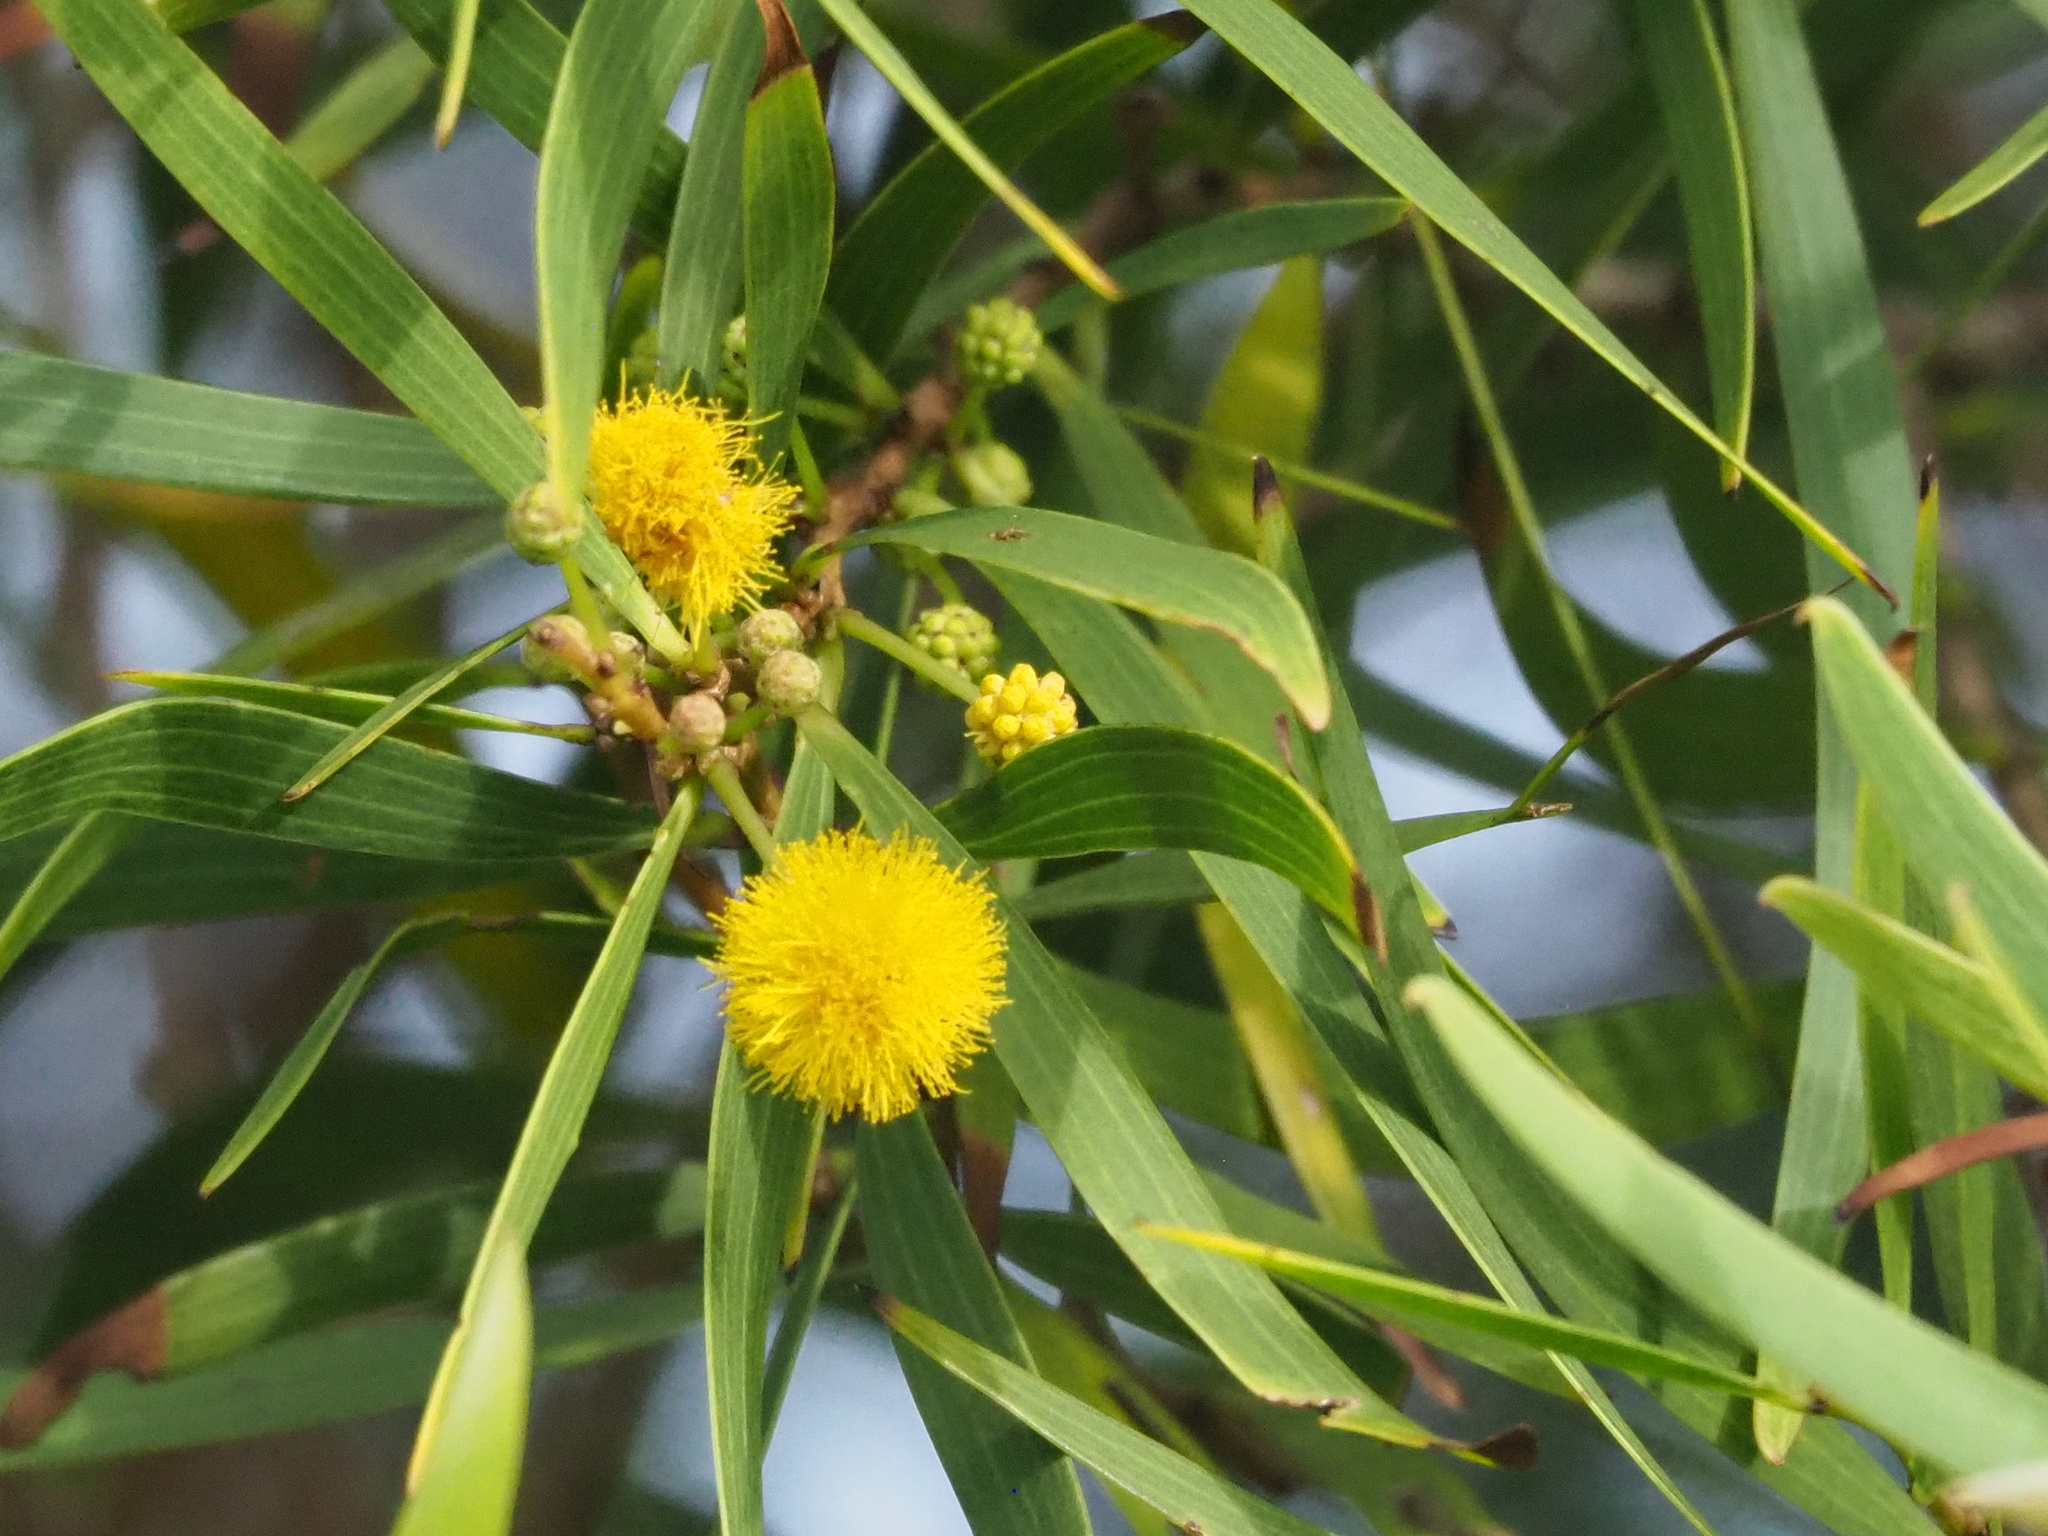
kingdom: Plantae
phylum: Tracheophyta
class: Magnoliopsida
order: Fabales
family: Fabaceae
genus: Acacia
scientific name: Acacia confusa
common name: Formosan koa
